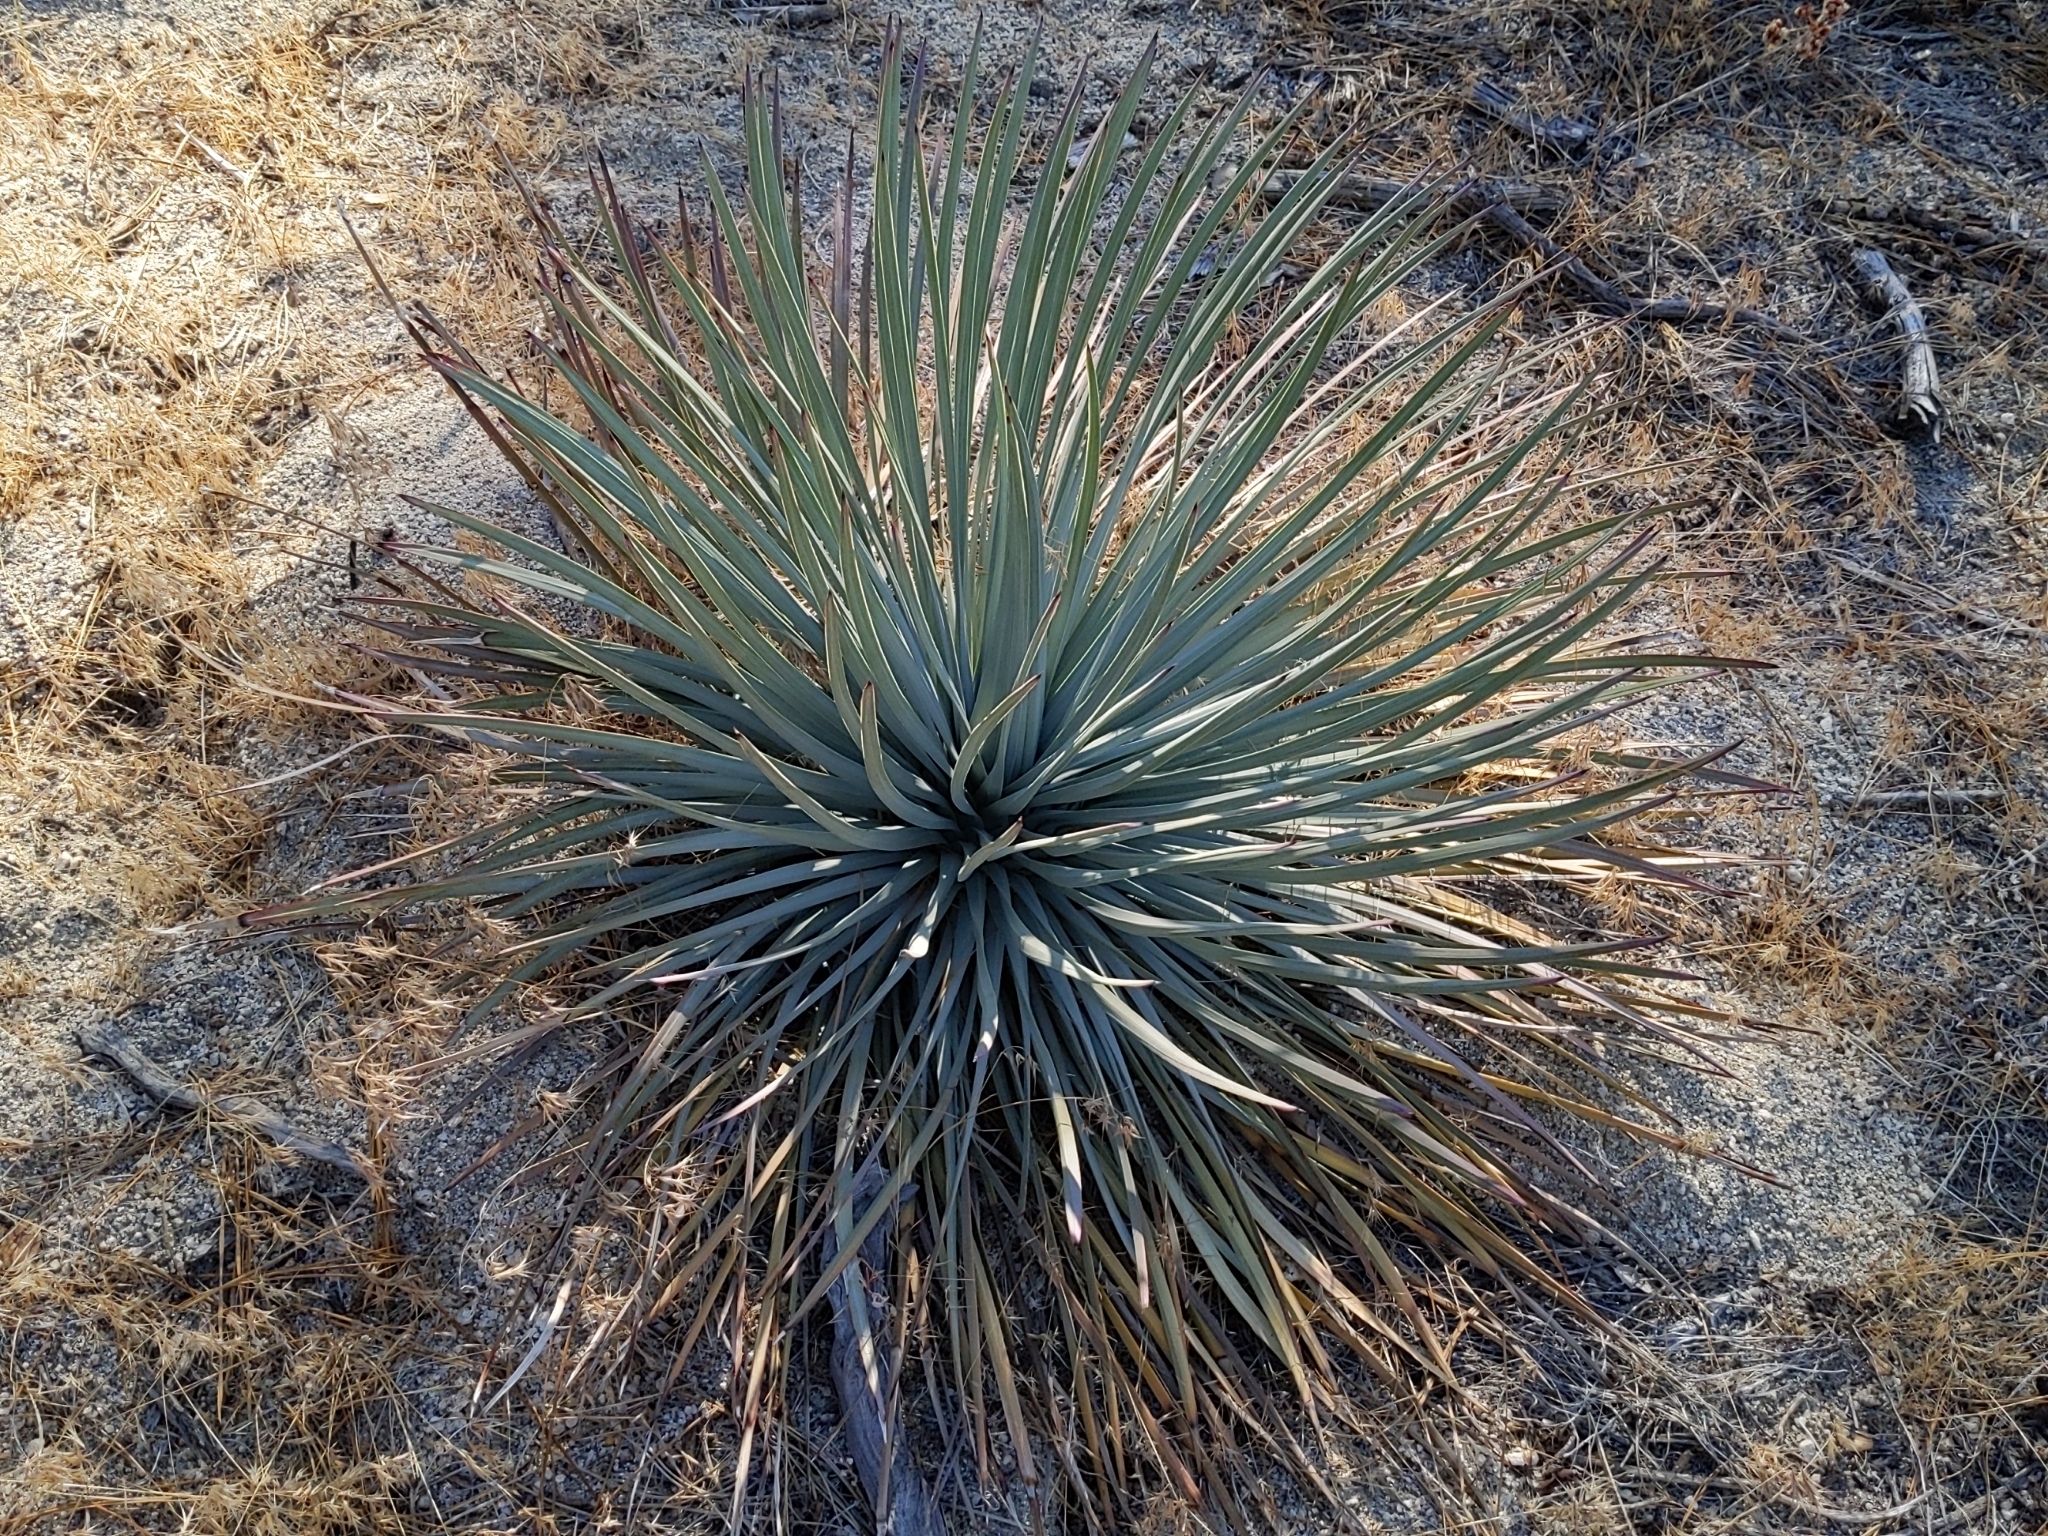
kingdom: Plantae
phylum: Tracheophyta
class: Liliopsida
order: Asparagales
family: Asparagaceae
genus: Hesperoyucca
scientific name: Hesperoyucca whipplei
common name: Our lord's-candle
